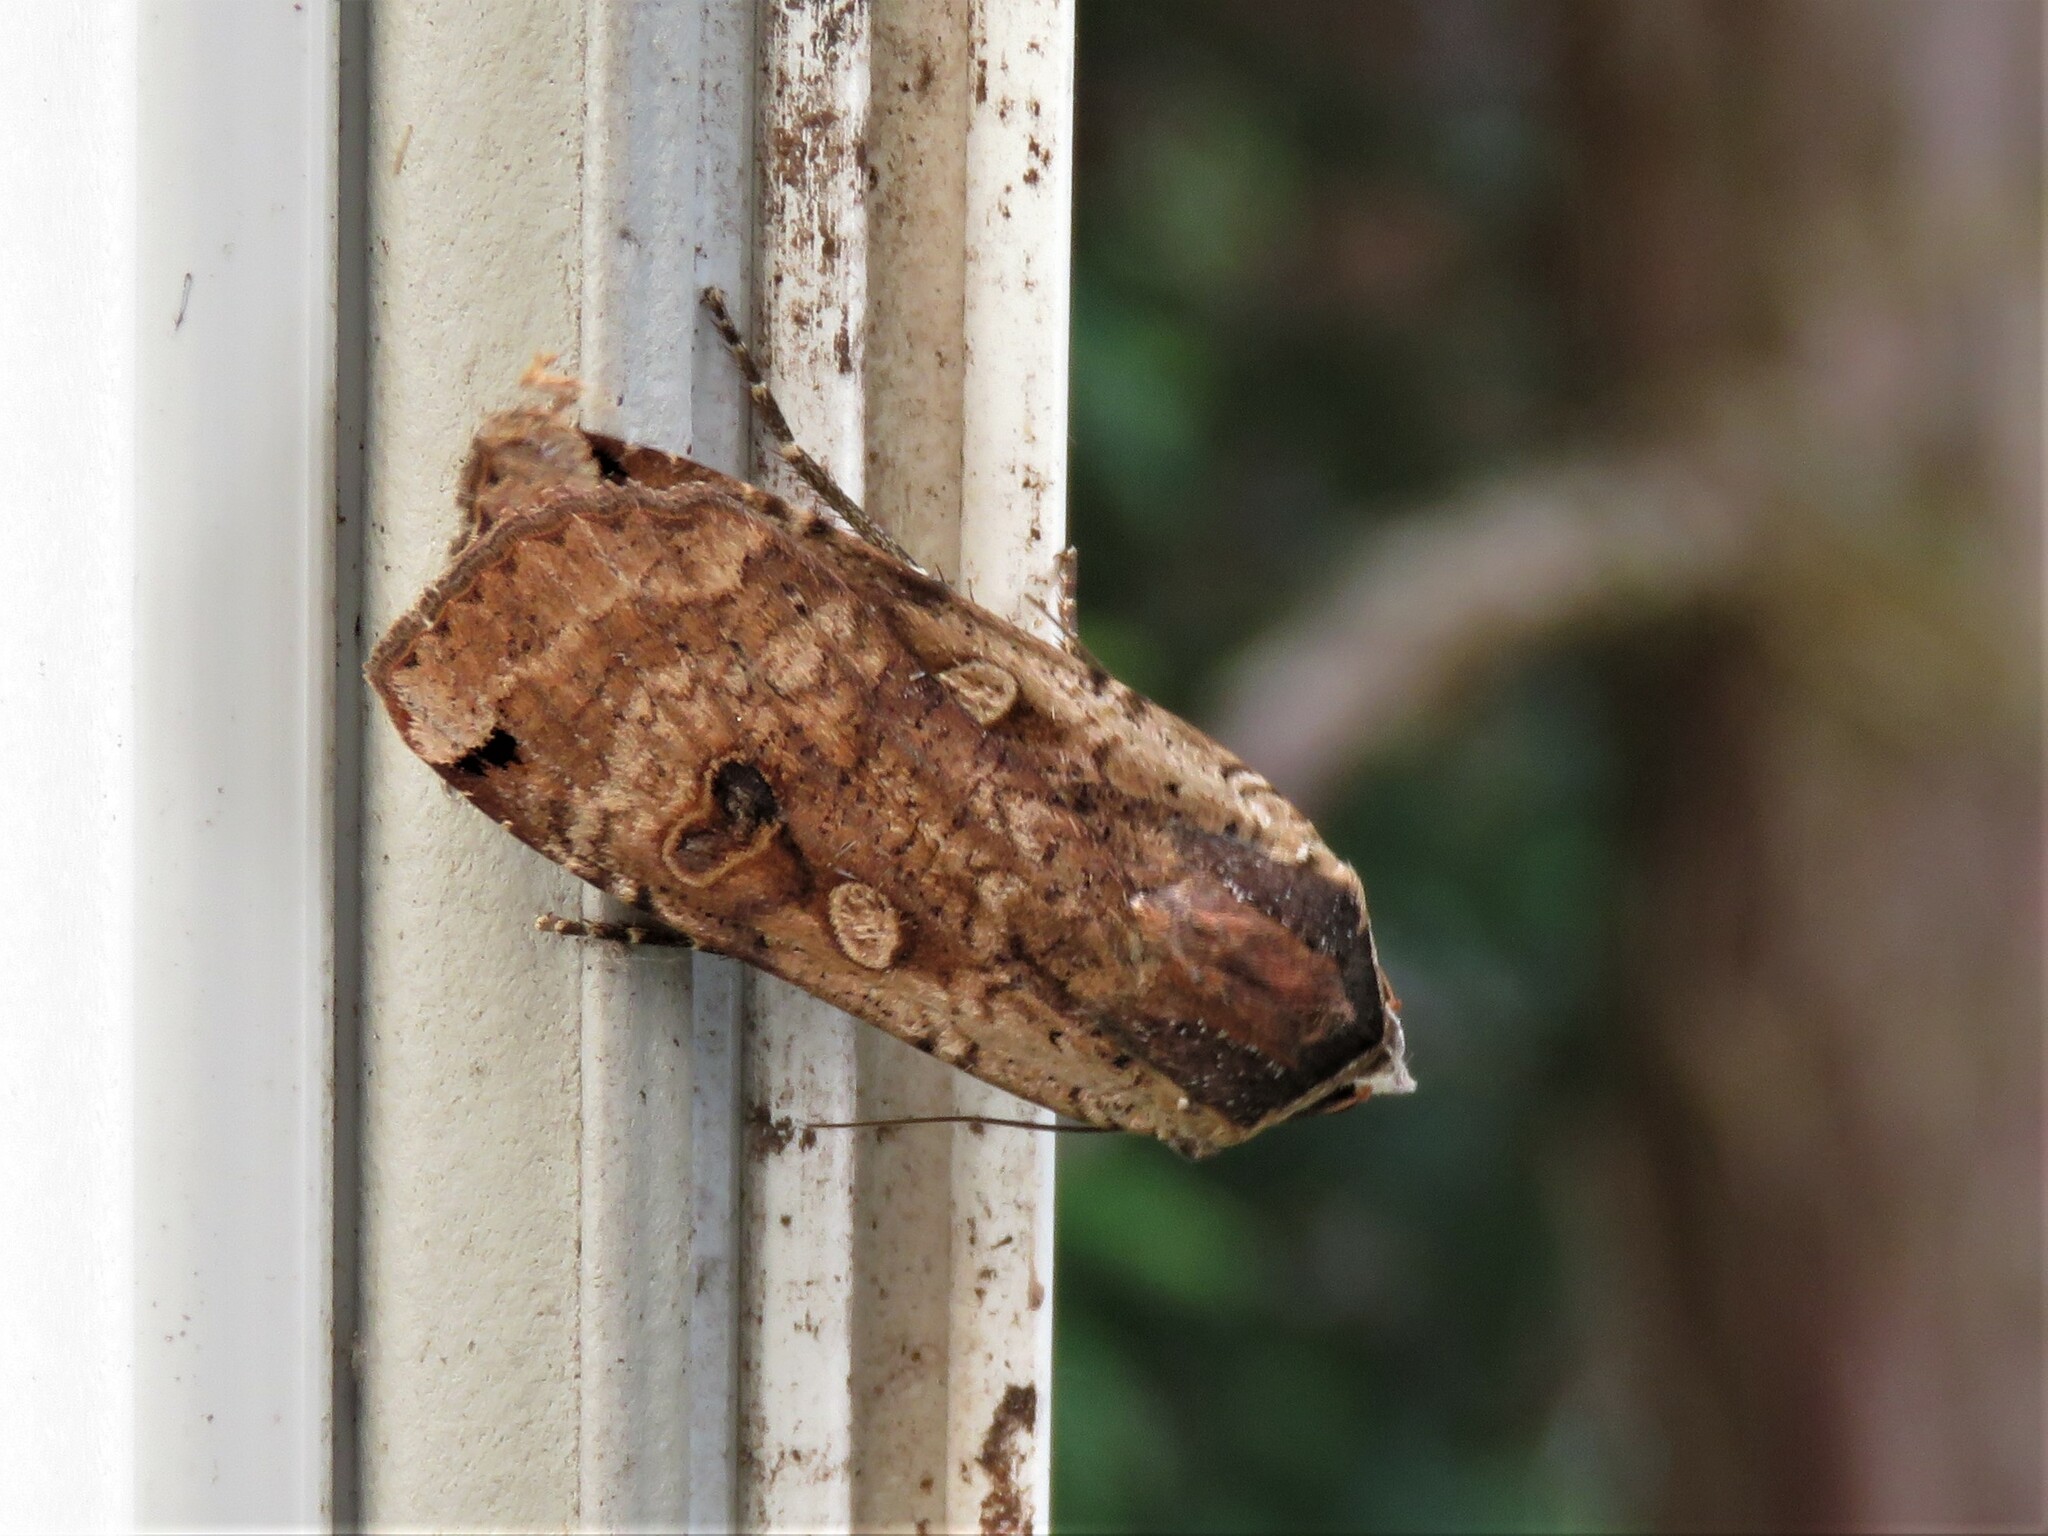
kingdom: Animalia
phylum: Arthropoda
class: Insecta
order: Lepidoptera
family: Noctuidae
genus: Noctua
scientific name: Noctua pronuba
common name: Large yellow underwing
